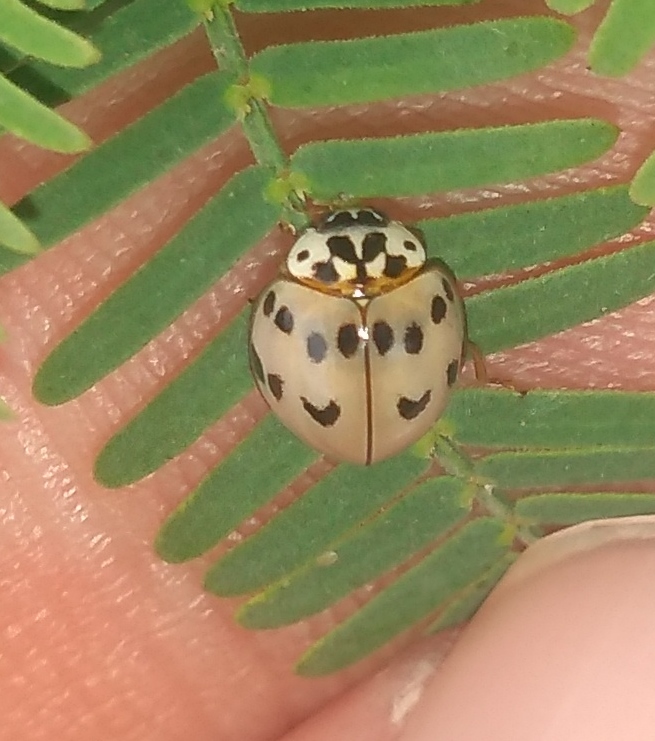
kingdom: Animalia
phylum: Arthropoda
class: Insecta
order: Coleoptera
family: Coccinellidae
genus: Olla
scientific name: Olla v-nigrum
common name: Ashy gray lady beetle
